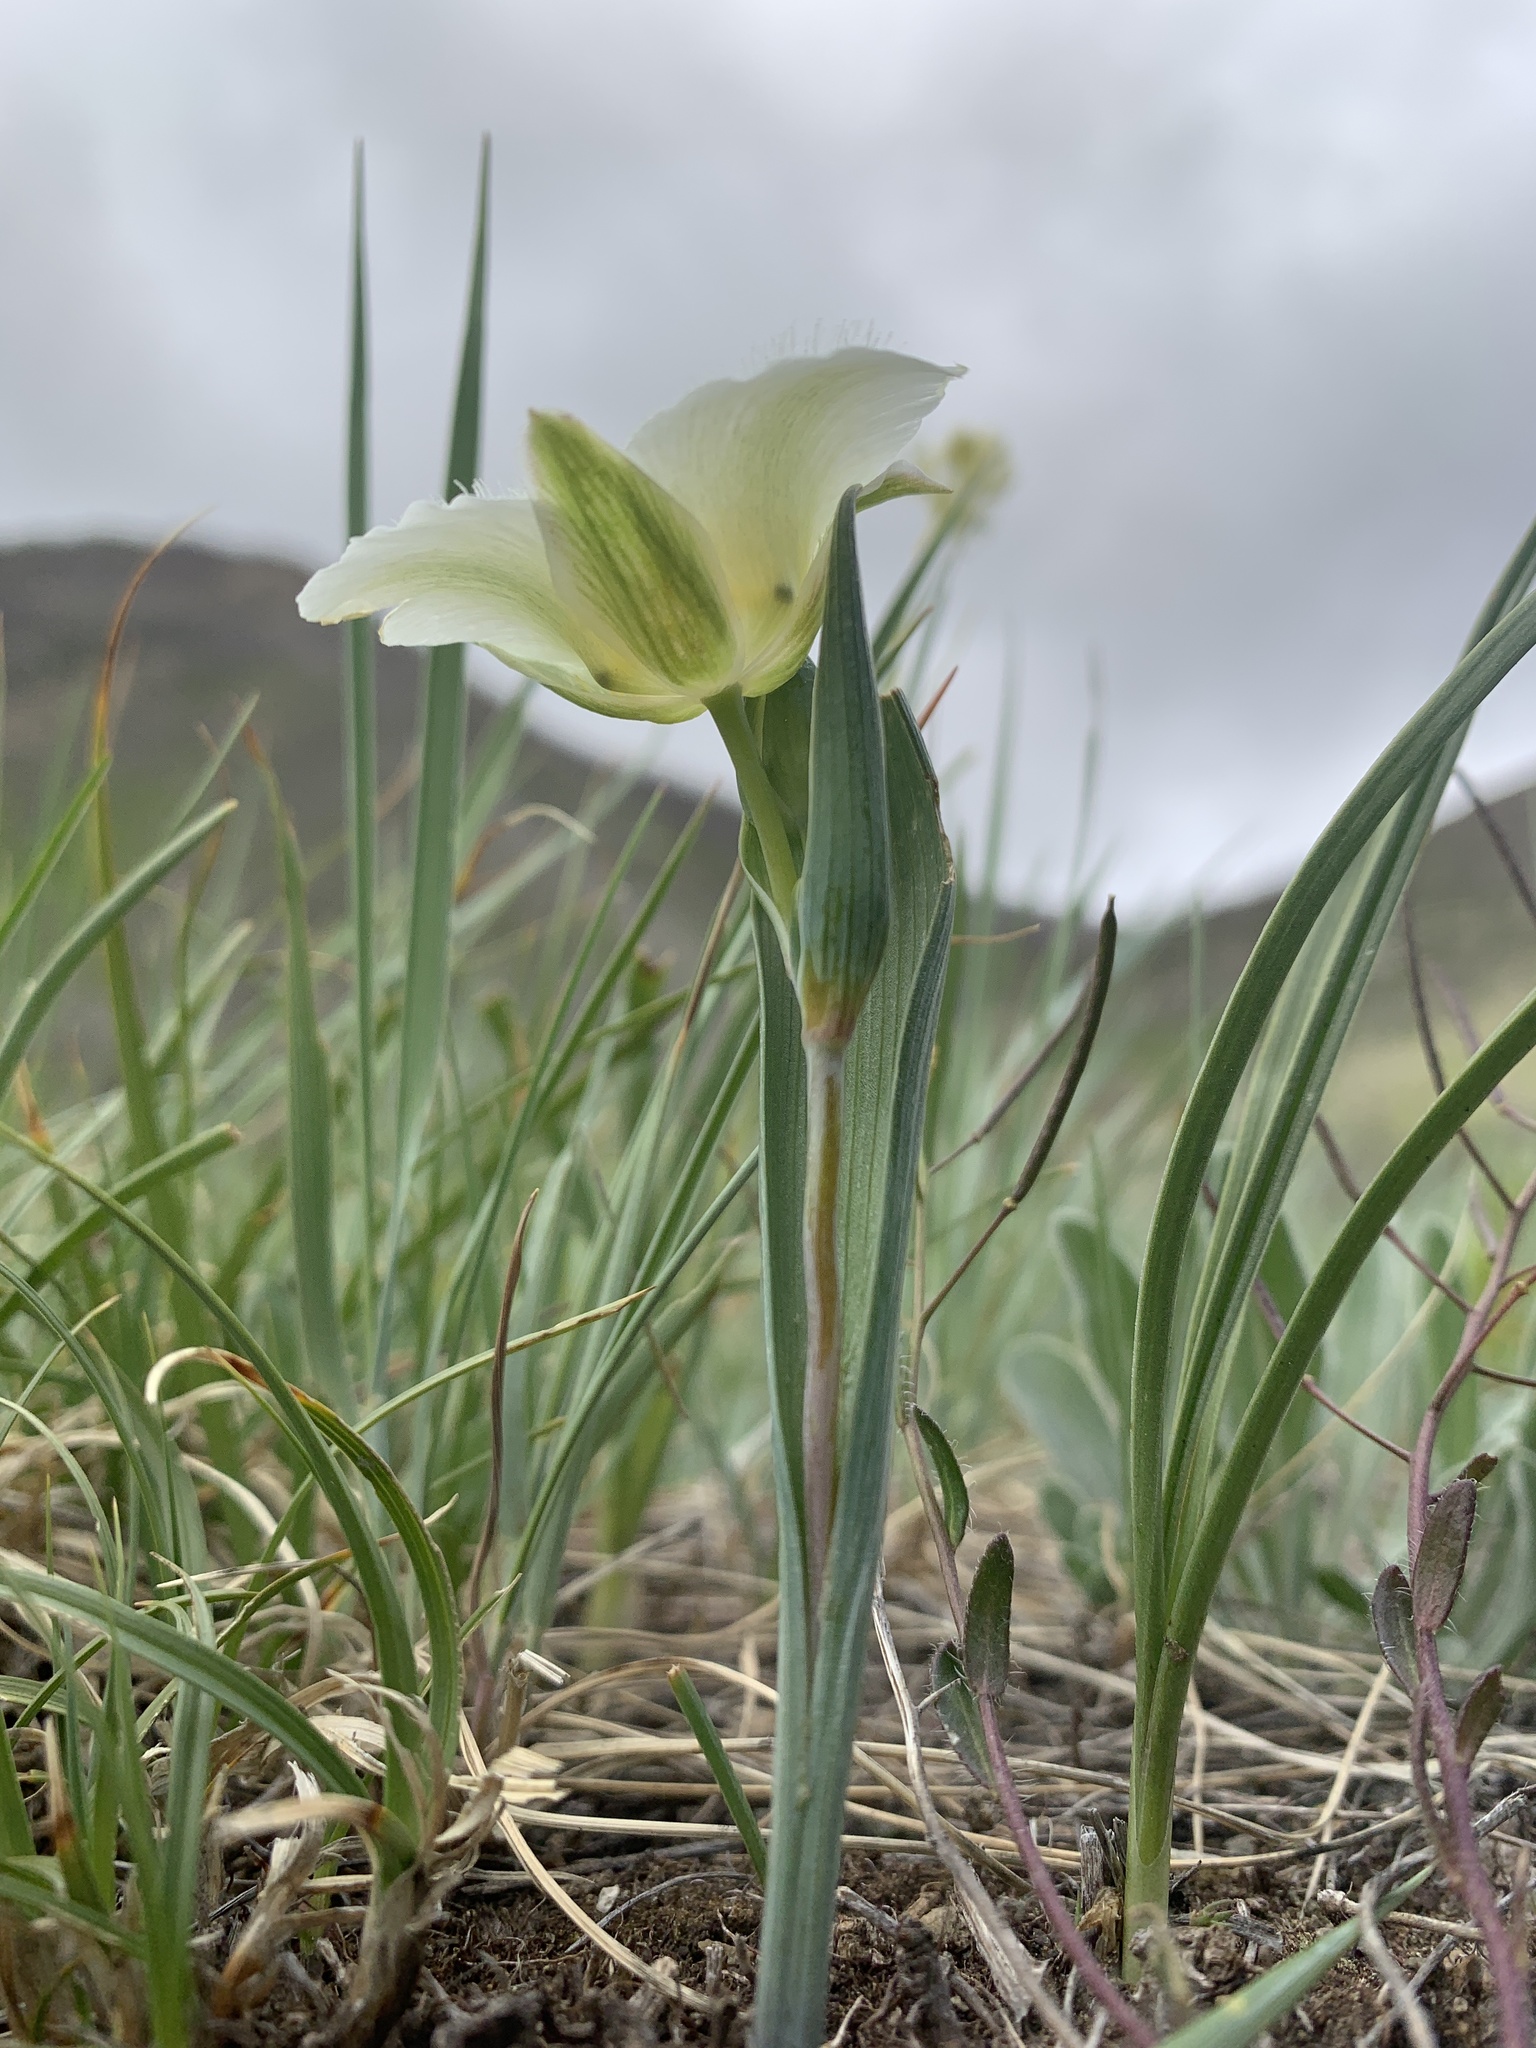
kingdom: Plantae
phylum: Tracheophyta
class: Liliopsida
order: Liliales
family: Liliaceae
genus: Calochortus
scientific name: Calochortus apiculatus
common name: Baker's mariposa lily
